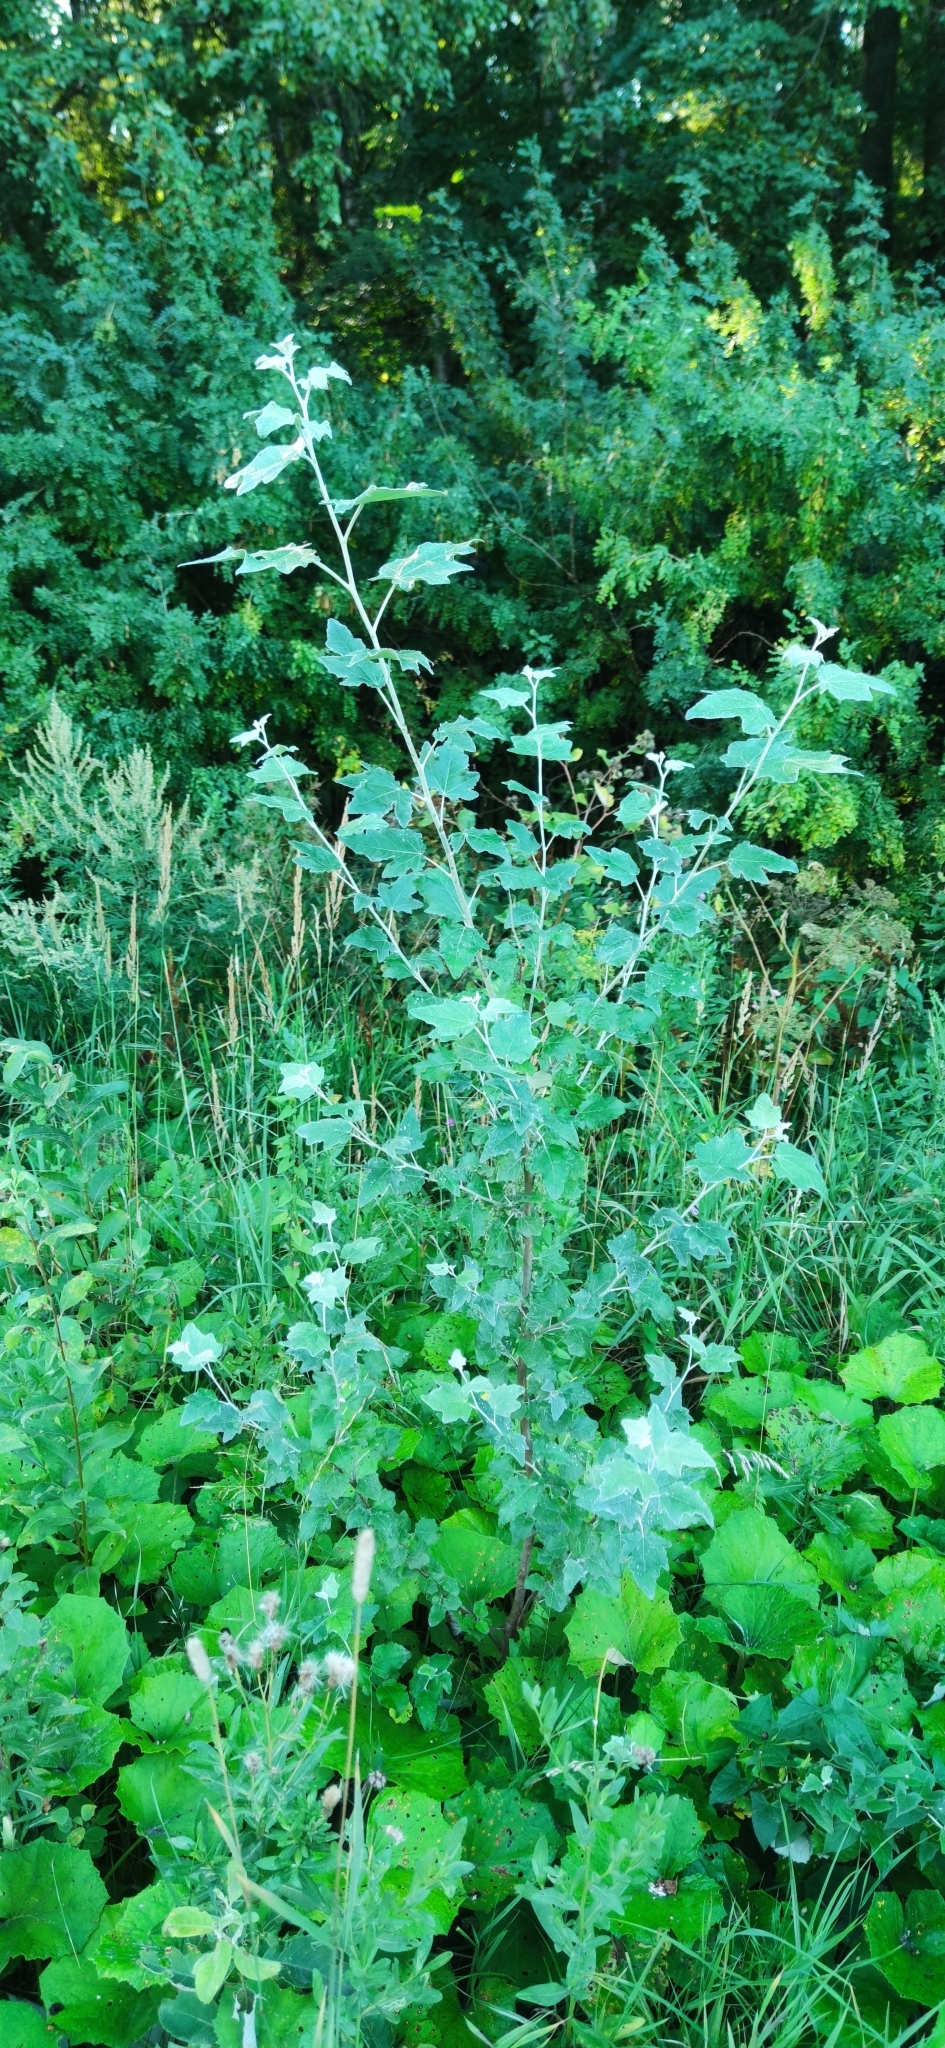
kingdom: Plantae
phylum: Tracheophyta
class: Magnoliopsida
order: Malpighiales
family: Salicaceae
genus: Populus
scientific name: Populus alba
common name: White poplar
